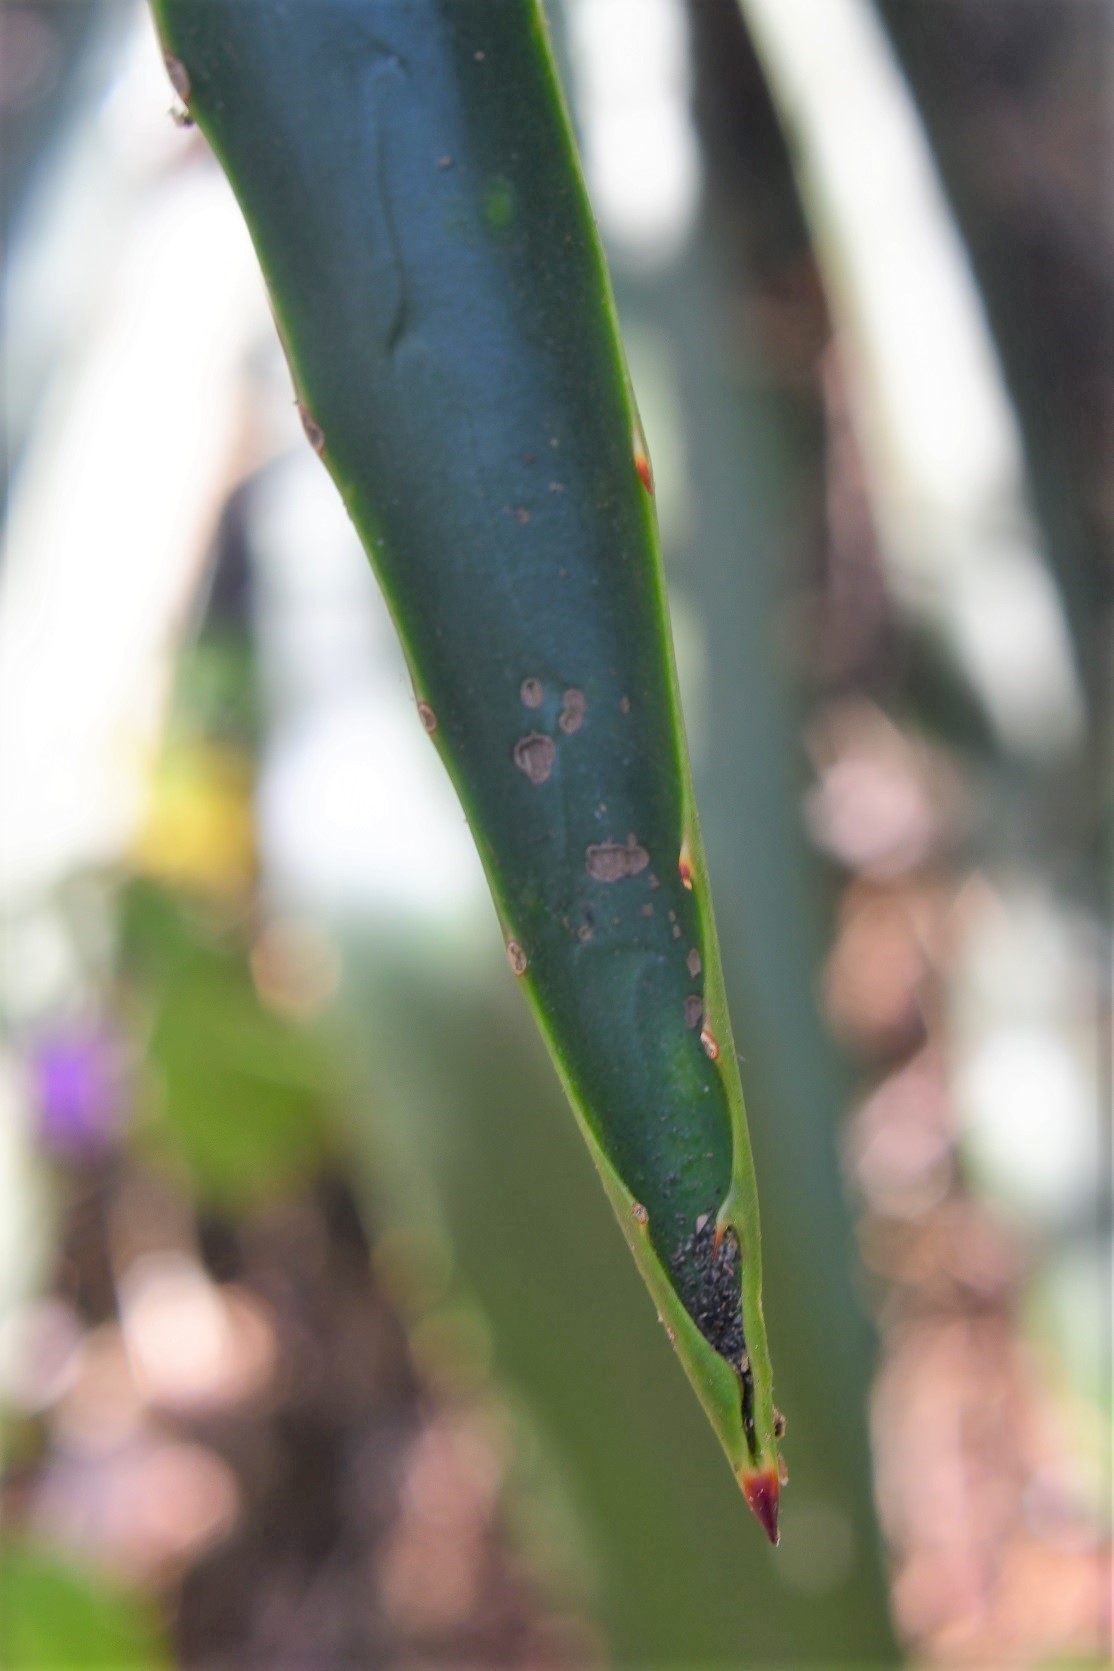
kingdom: Plantae
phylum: Tracheophyta
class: Liliopsida
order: Asparagales
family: Asparagaceae
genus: Furcraea
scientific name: Furcraea cabuya
